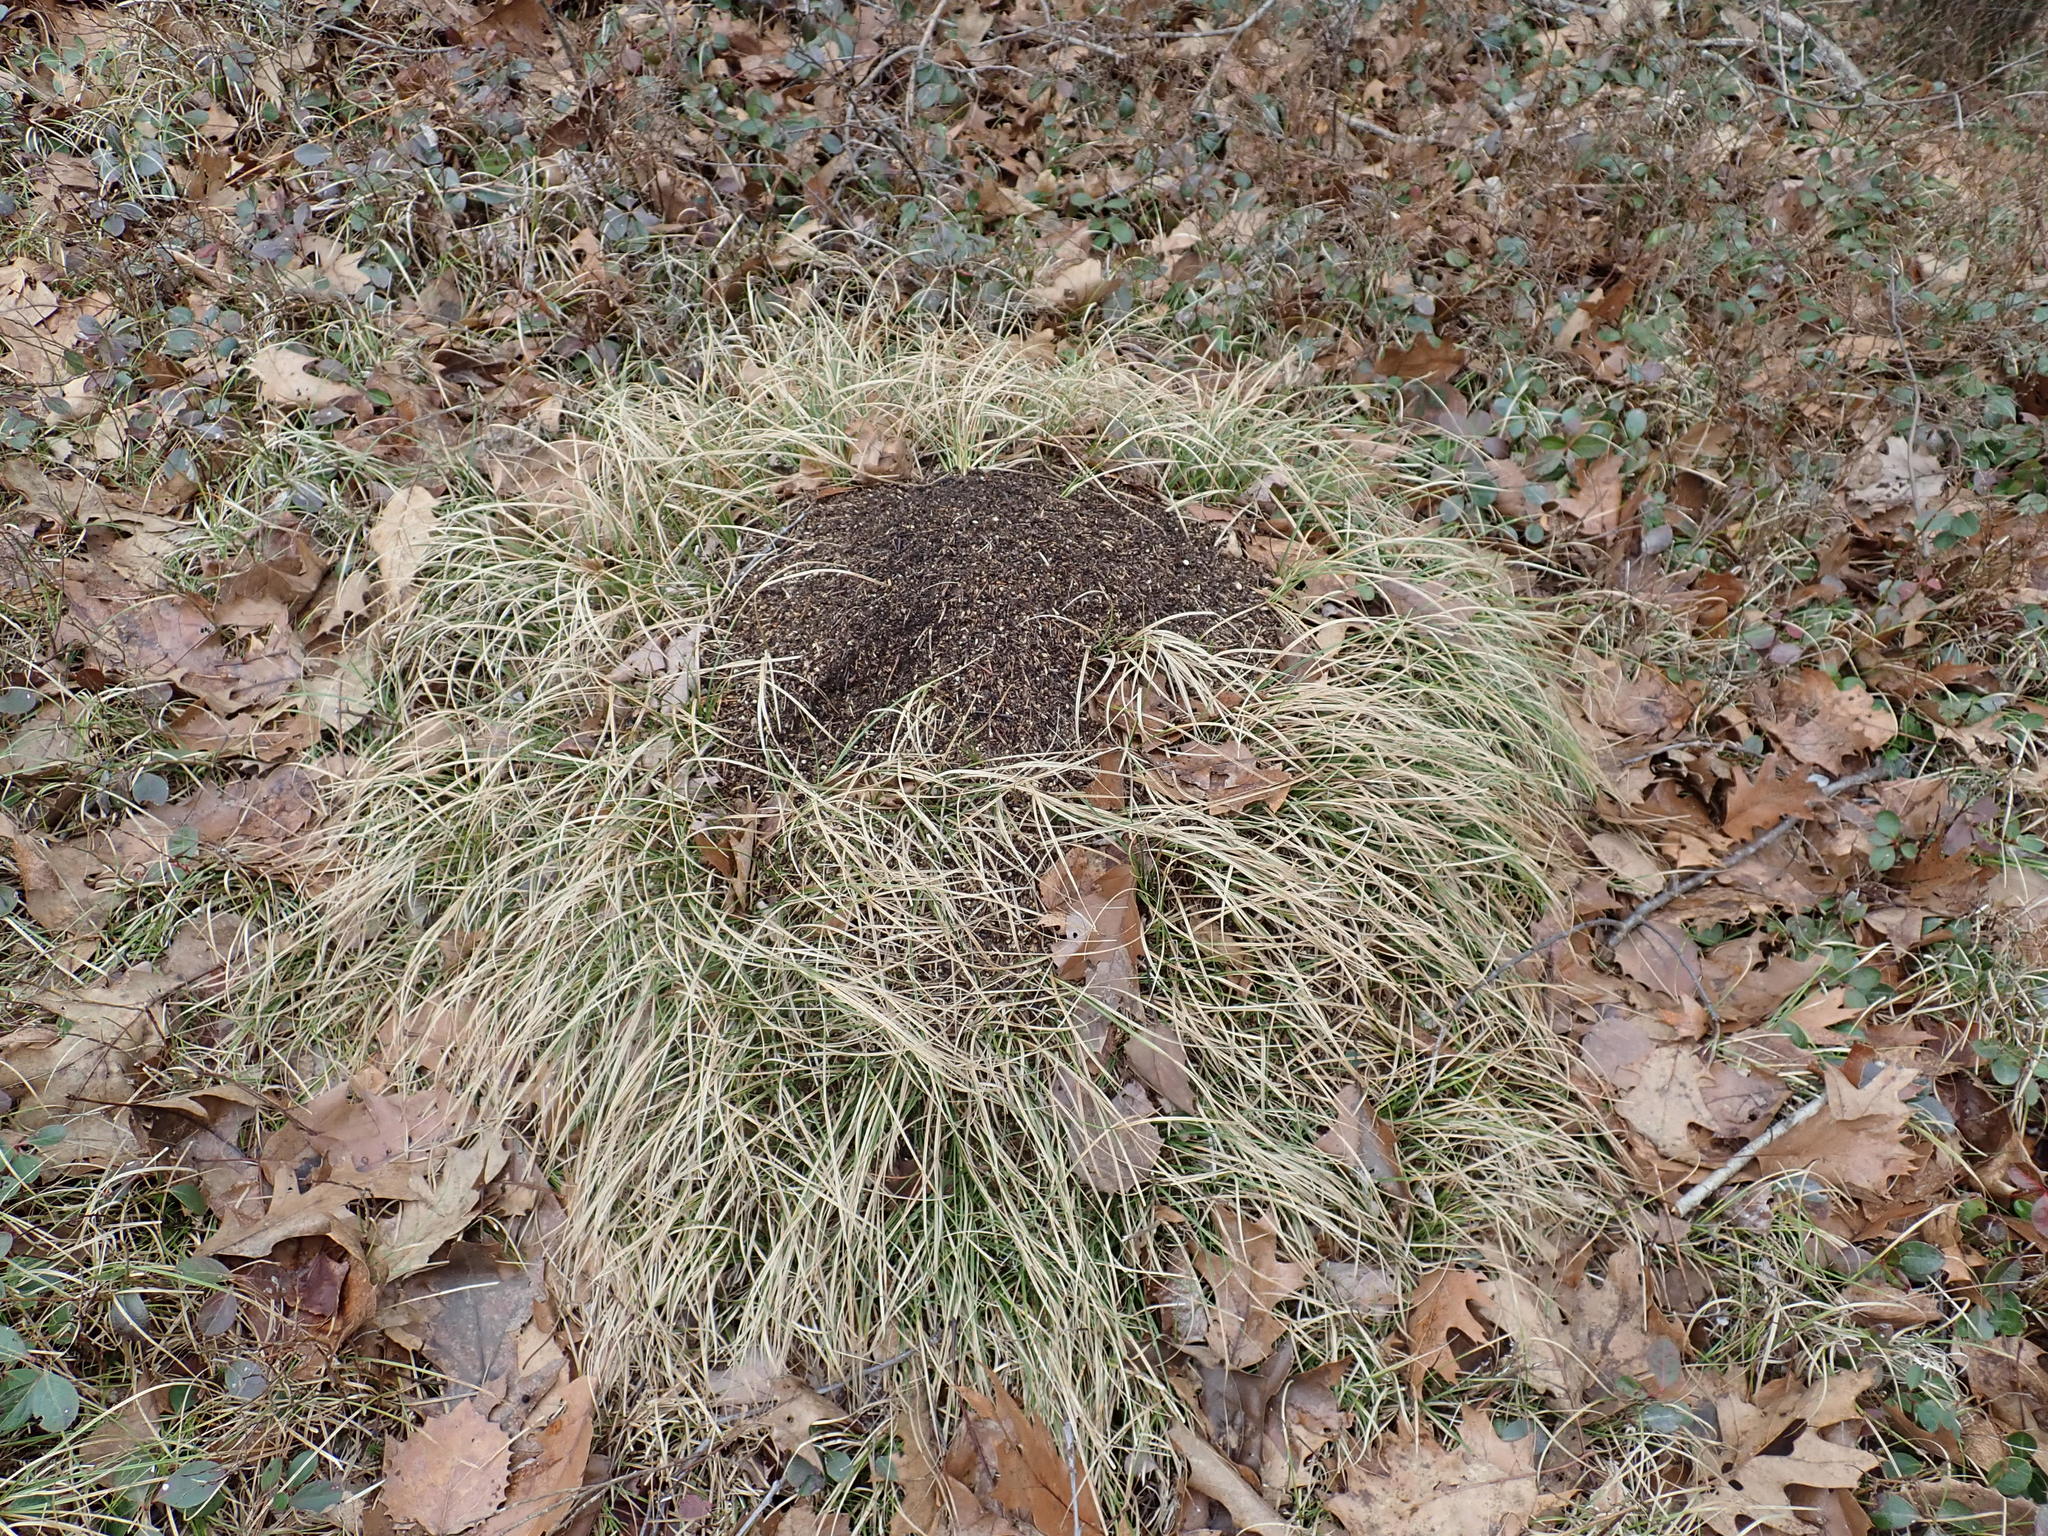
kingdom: Animalia
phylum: Arthropoda
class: Insecta
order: Hymenoptera
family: Formicidae
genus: Formica
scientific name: Formica exsectoides
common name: Allegheny mound ant
